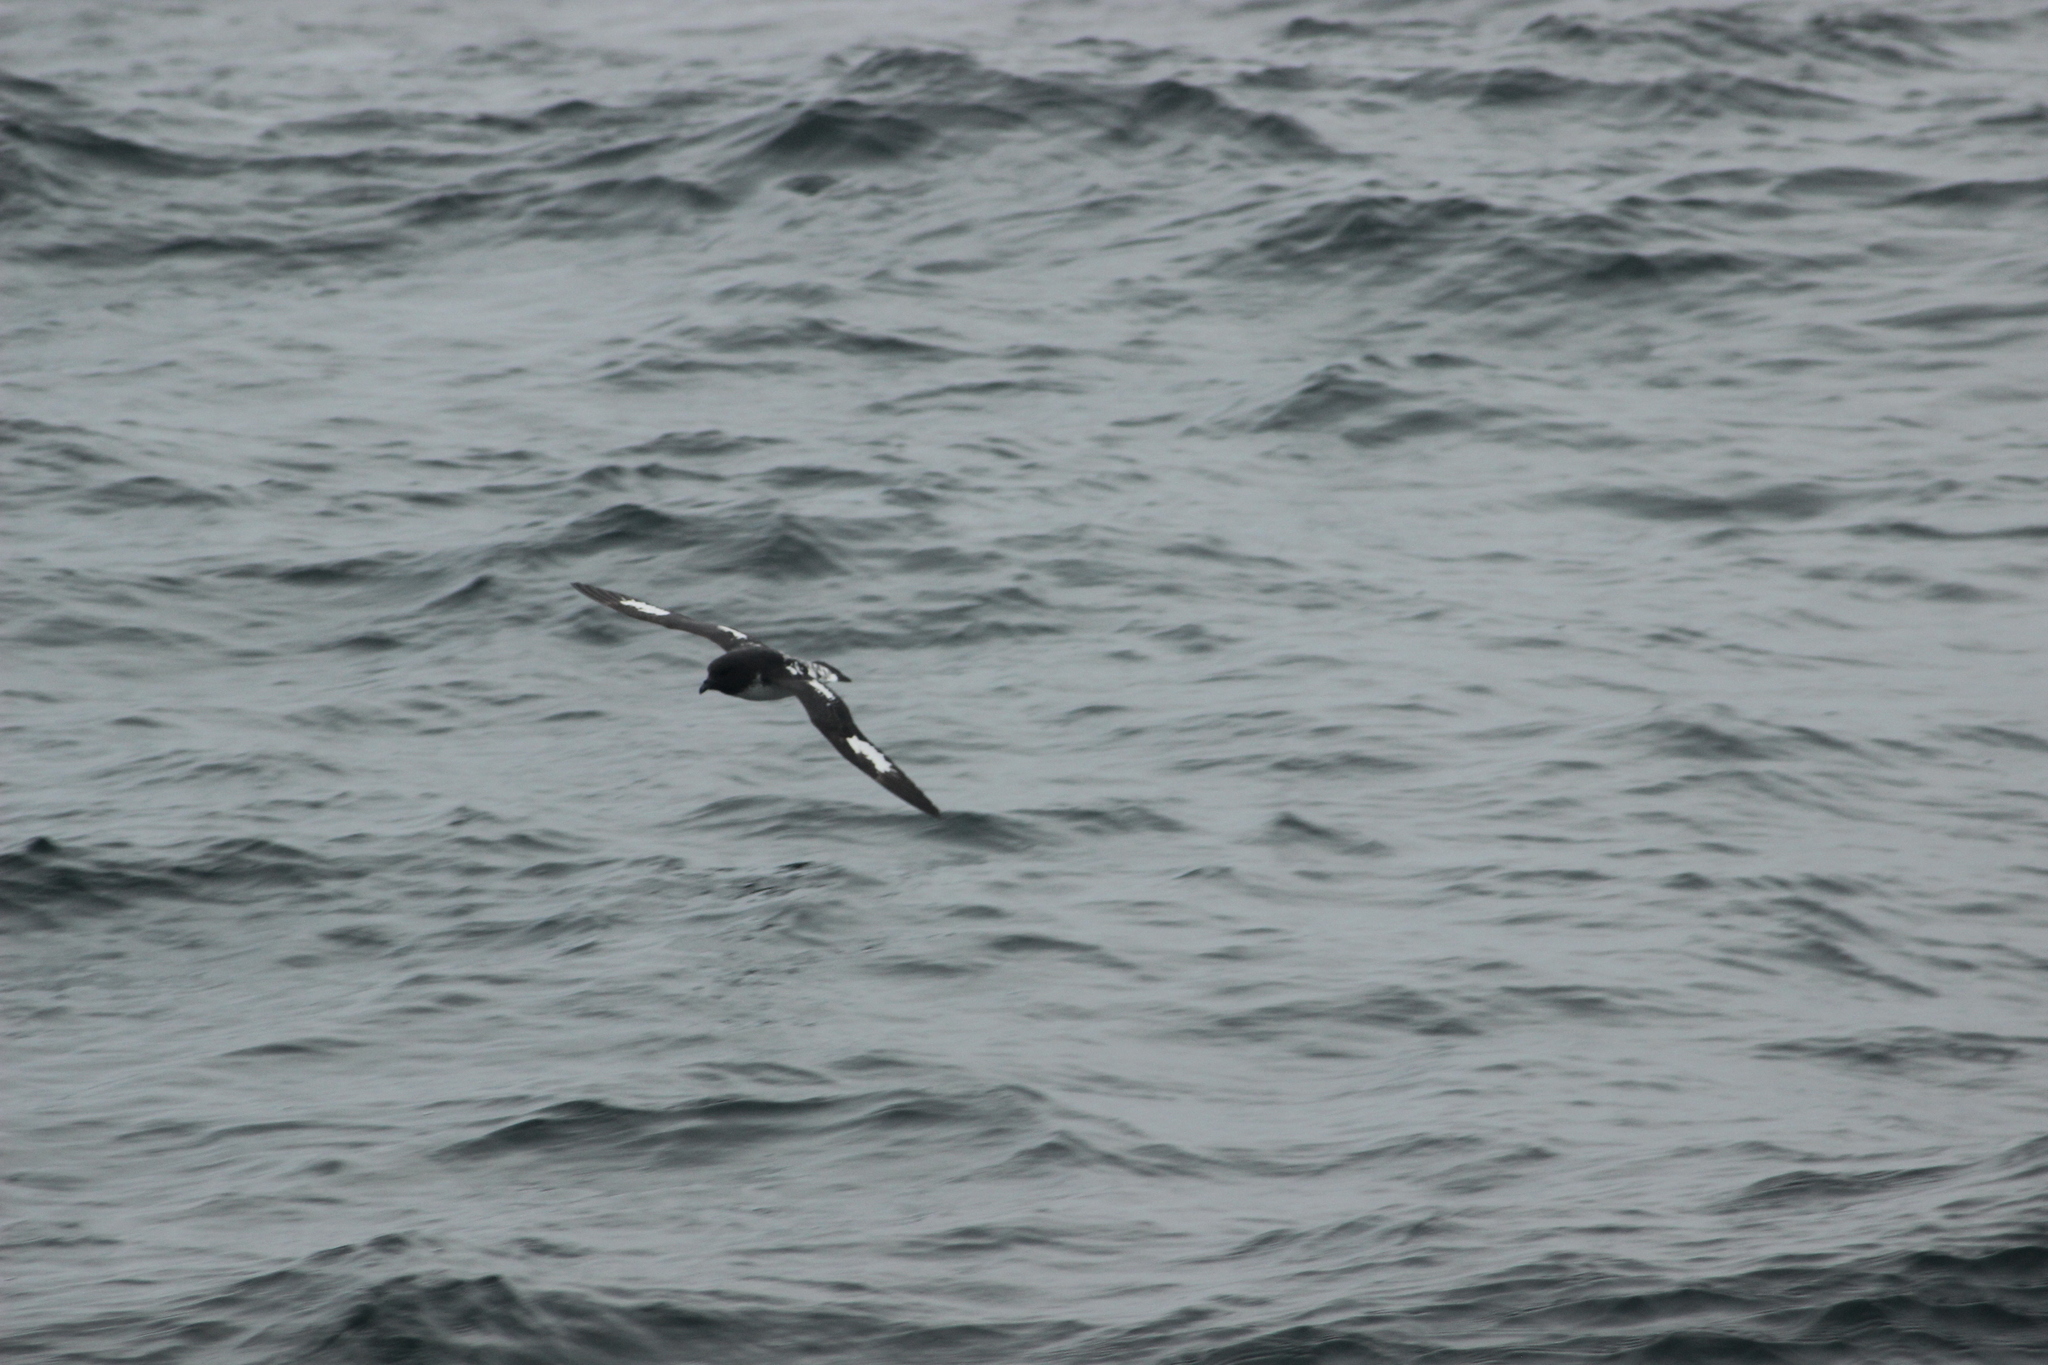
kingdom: Animalia
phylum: Chordata
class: Aves
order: Procellariiformes
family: Procellariidae
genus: Daption
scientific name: Daption capense
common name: Cape petrel
